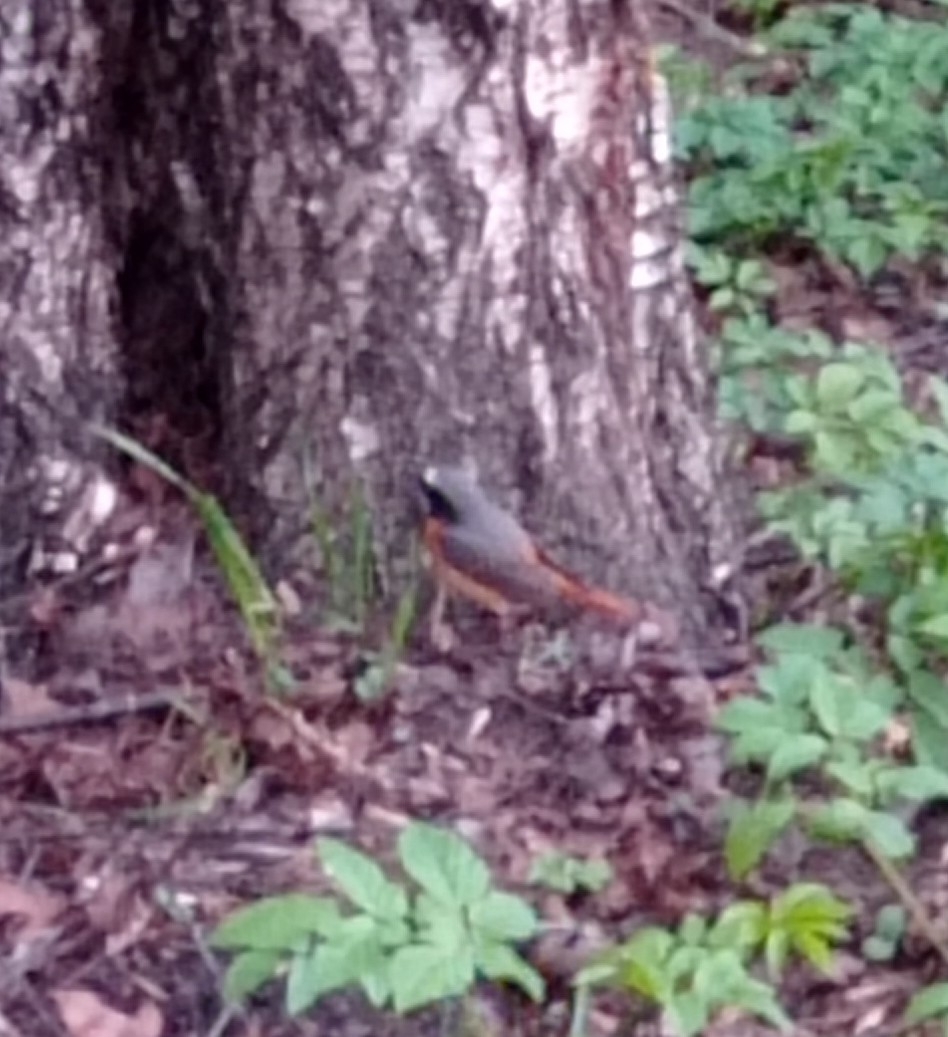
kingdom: Animalia
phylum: Chordata
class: Aves
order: Passeriformes
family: Muscicapidae
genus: Phoenicurus
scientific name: Phoenicurus phoenicurus
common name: Common redstart
